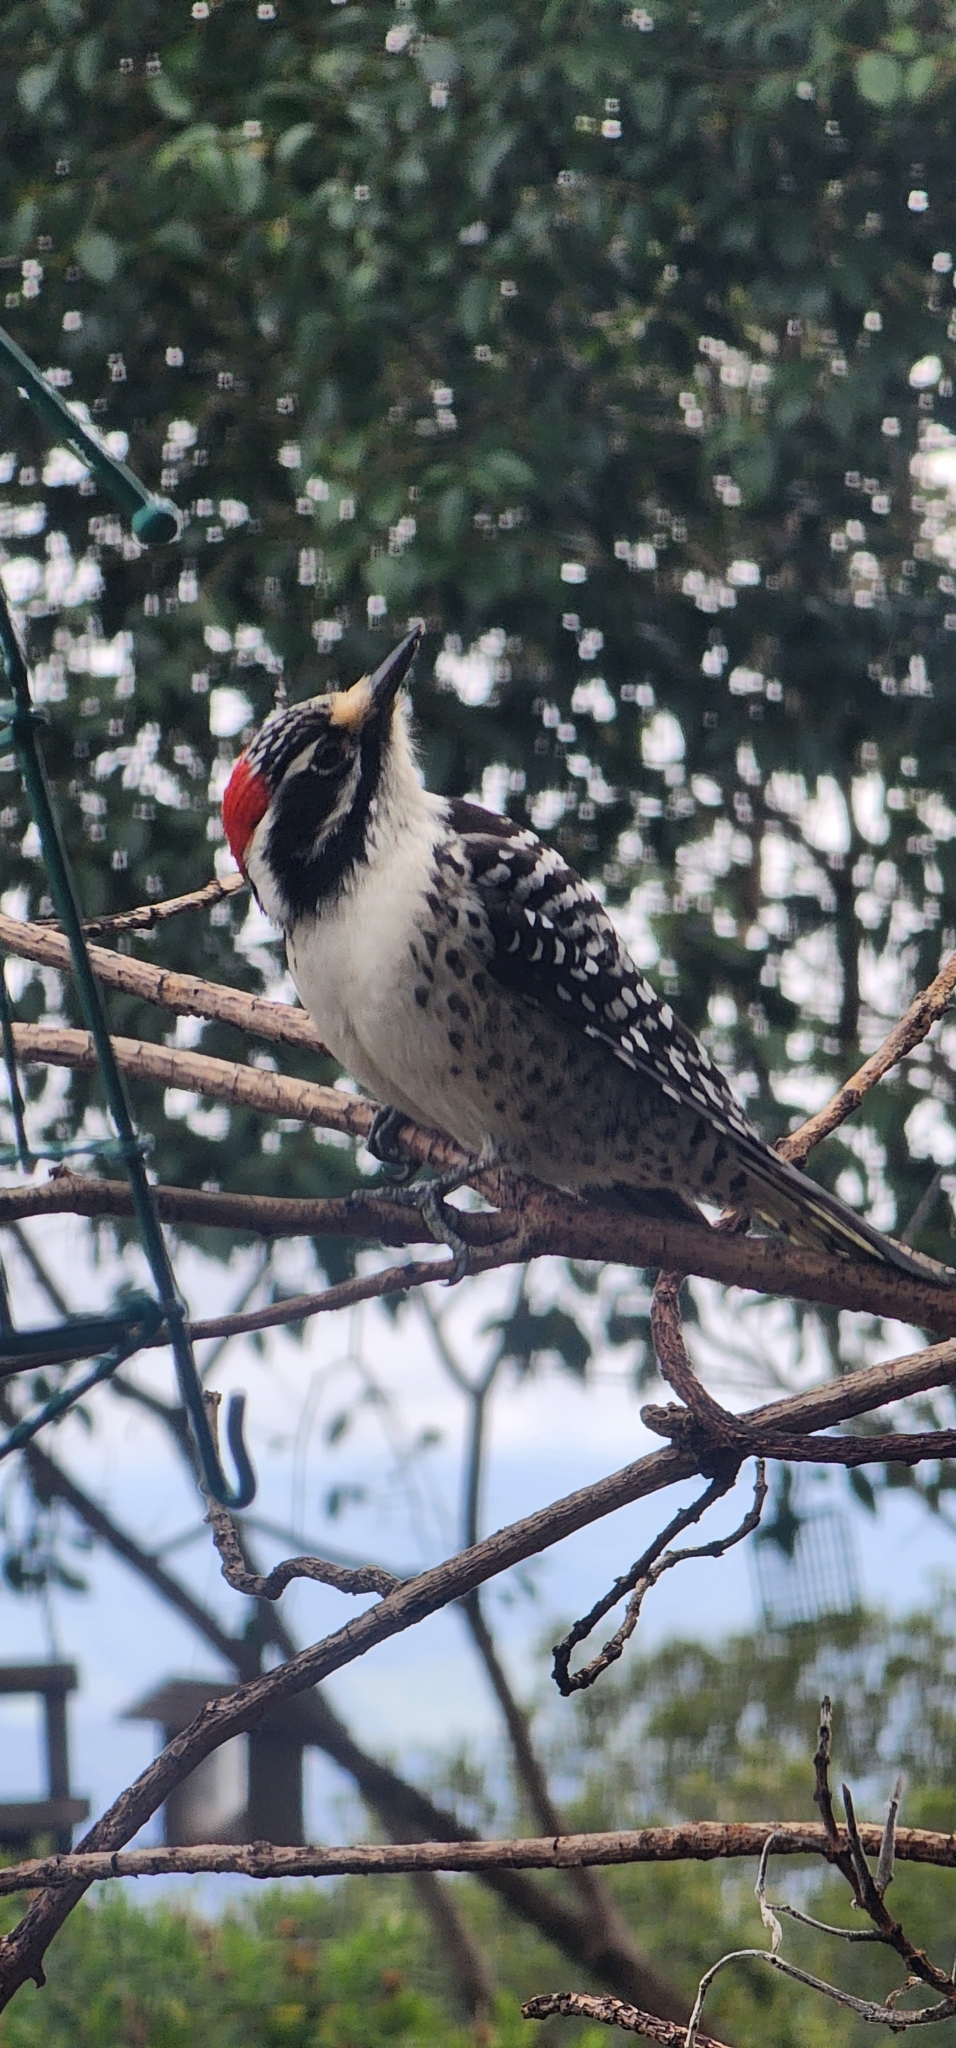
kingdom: Animalia
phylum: Chordata
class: Aves
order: Piciformes
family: Picidae
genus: Dryobates
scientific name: Dryobates nuttallii
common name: Nuttall's woodpecker
